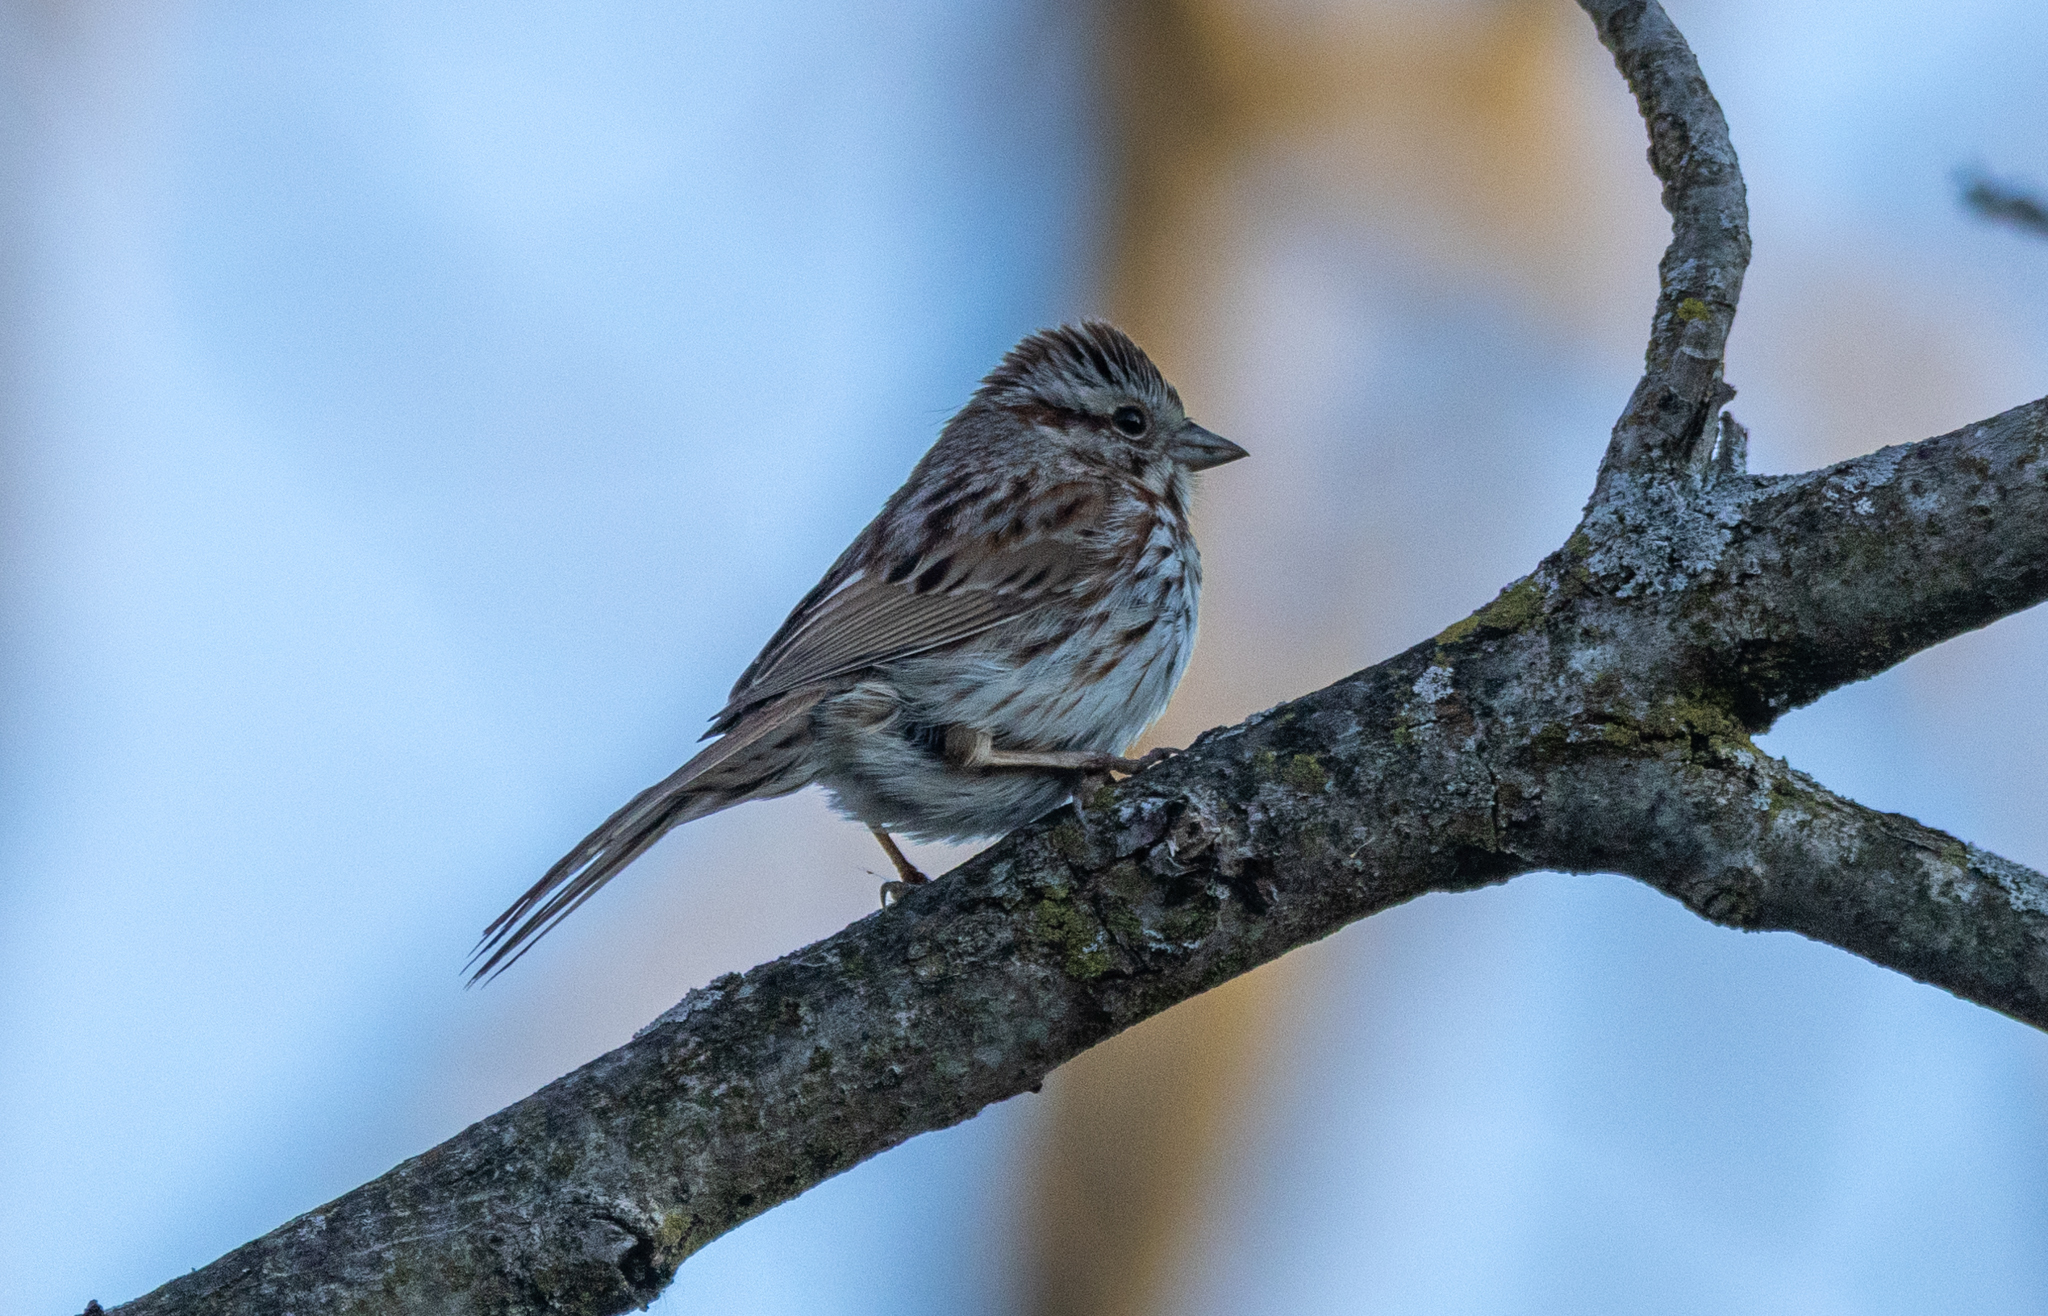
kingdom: Animalia
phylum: Chordata
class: Aves
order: Passeriformes
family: Passerellidae
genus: Melospiza
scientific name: Melospiza melodia
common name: Song sparrow
